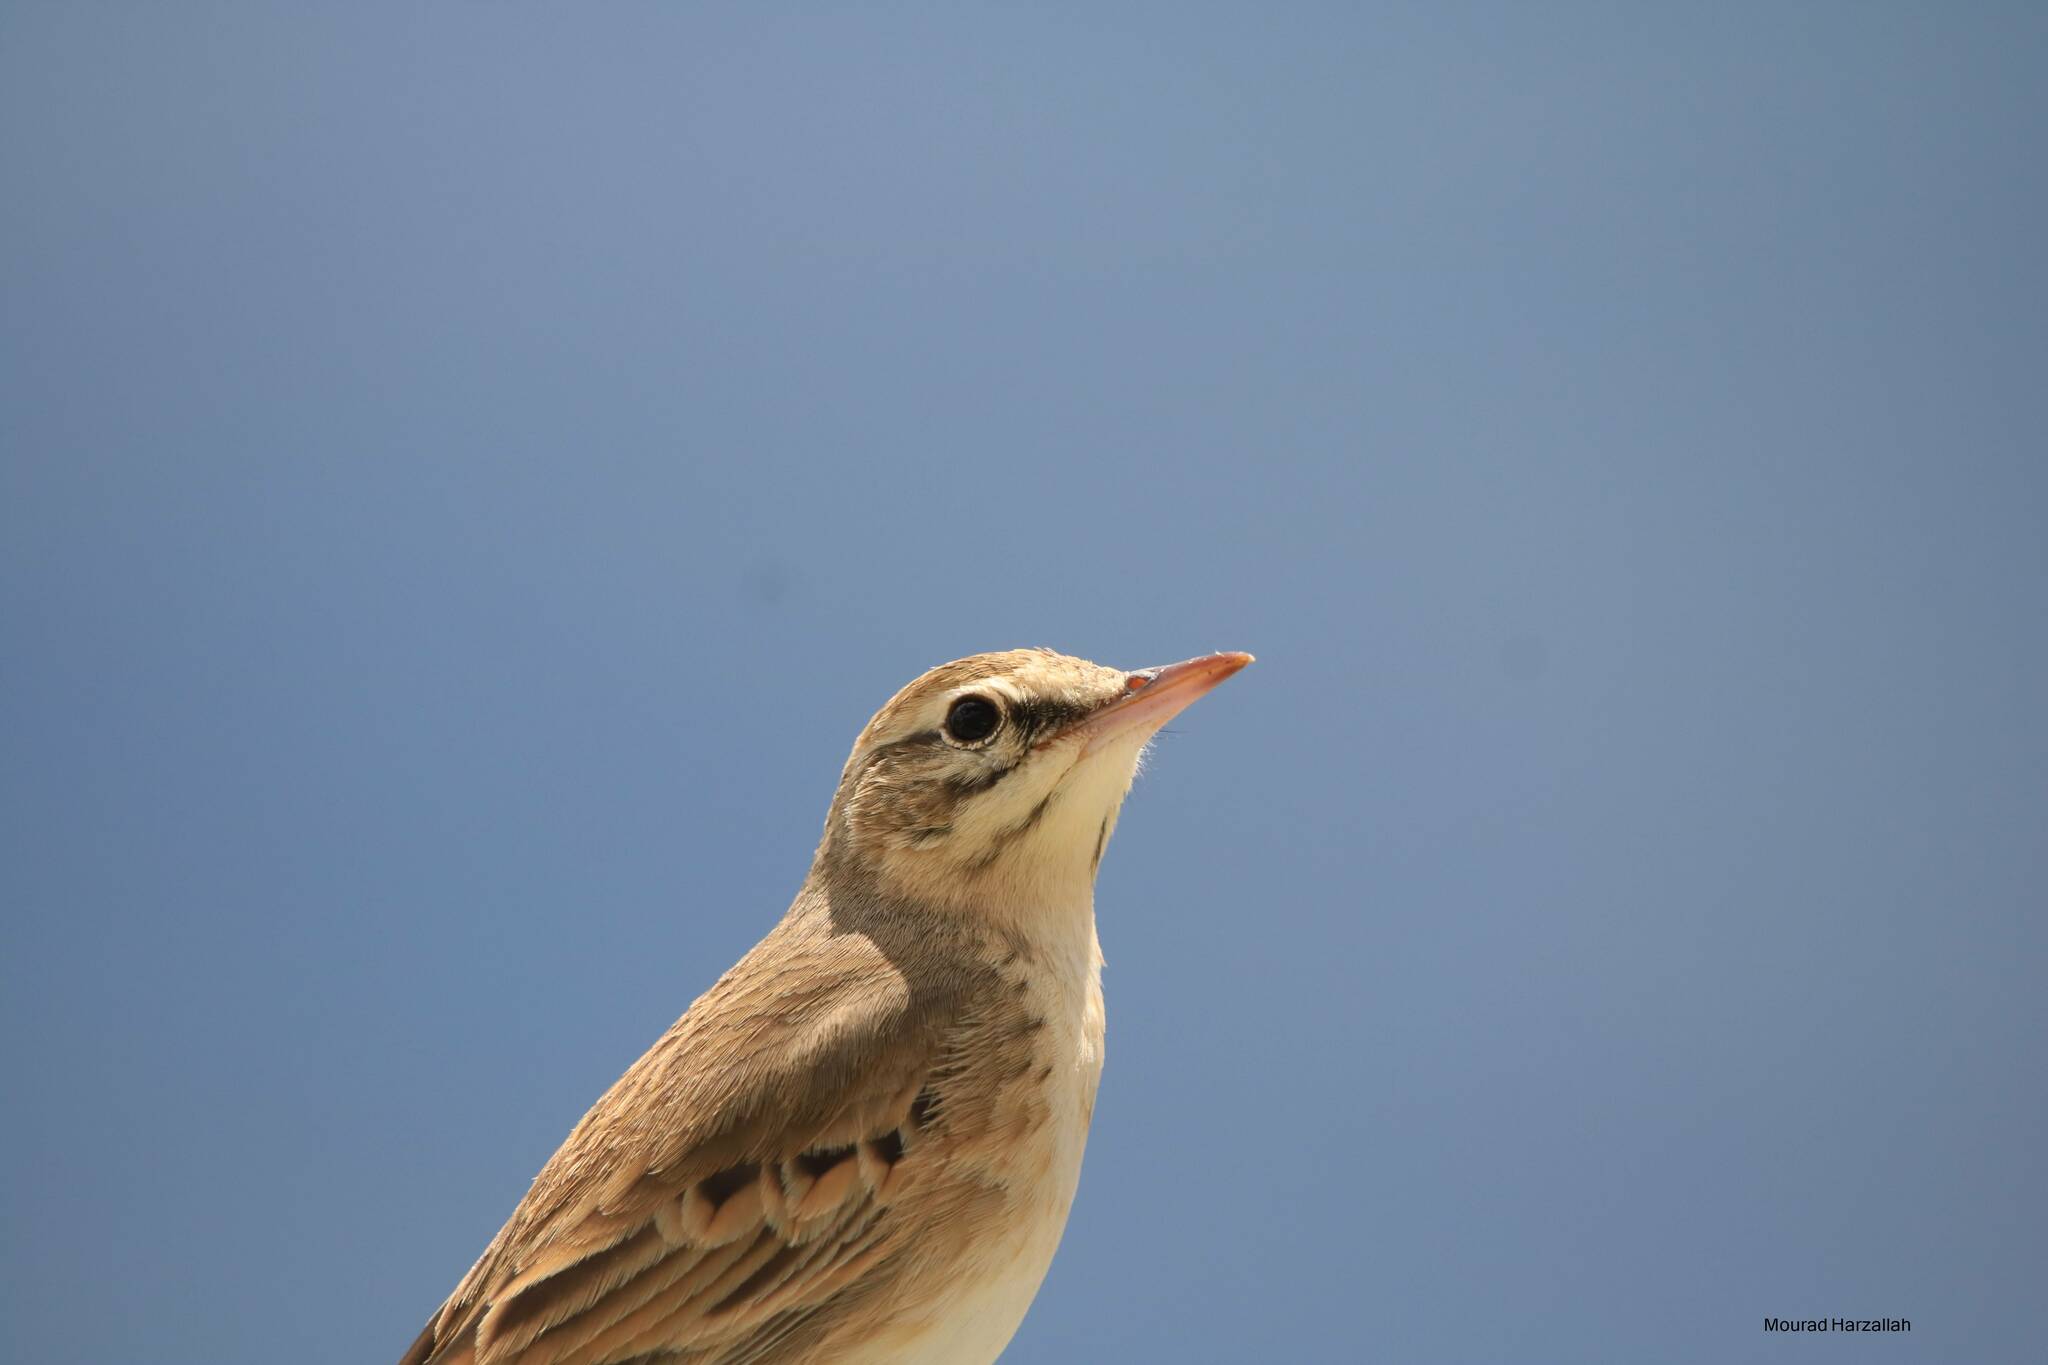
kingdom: Animalia
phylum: Chordata
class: Aves
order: Passeriformes
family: Motacillidae
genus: Anthus
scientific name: Anthus campestris
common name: Tawny pipit
